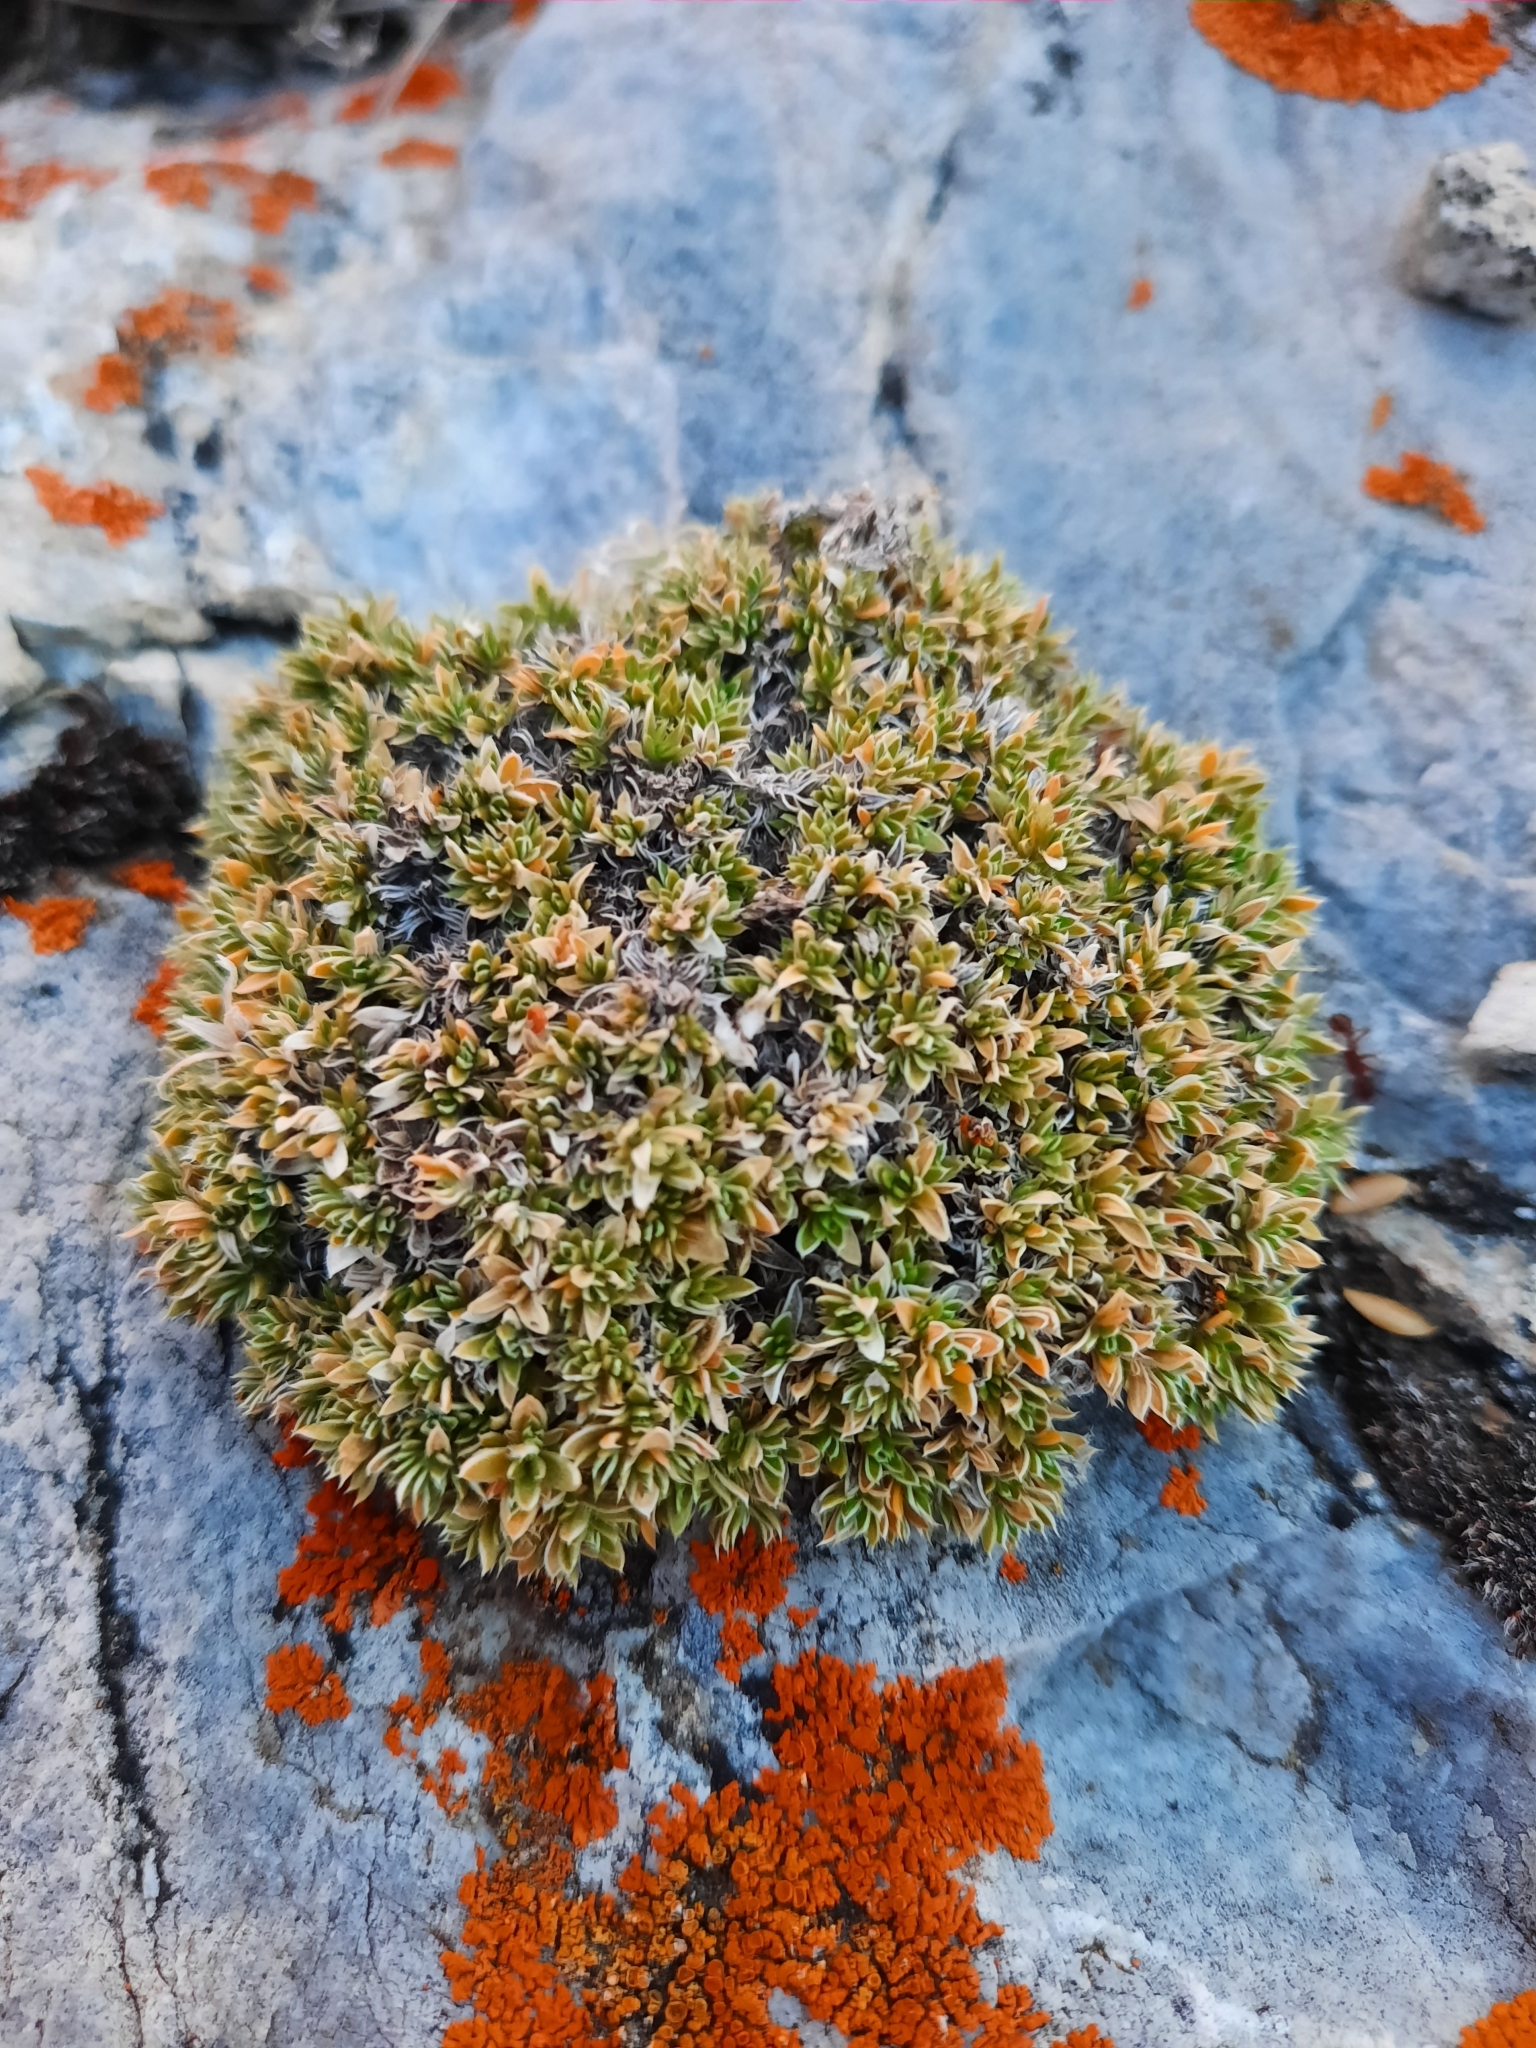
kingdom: Plantae
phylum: Tracheophyta
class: Magnoliopsida
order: Ericales
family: Polemoniaceae
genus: Phlox
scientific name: Phlox albomarginata
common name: White-margin phlox
